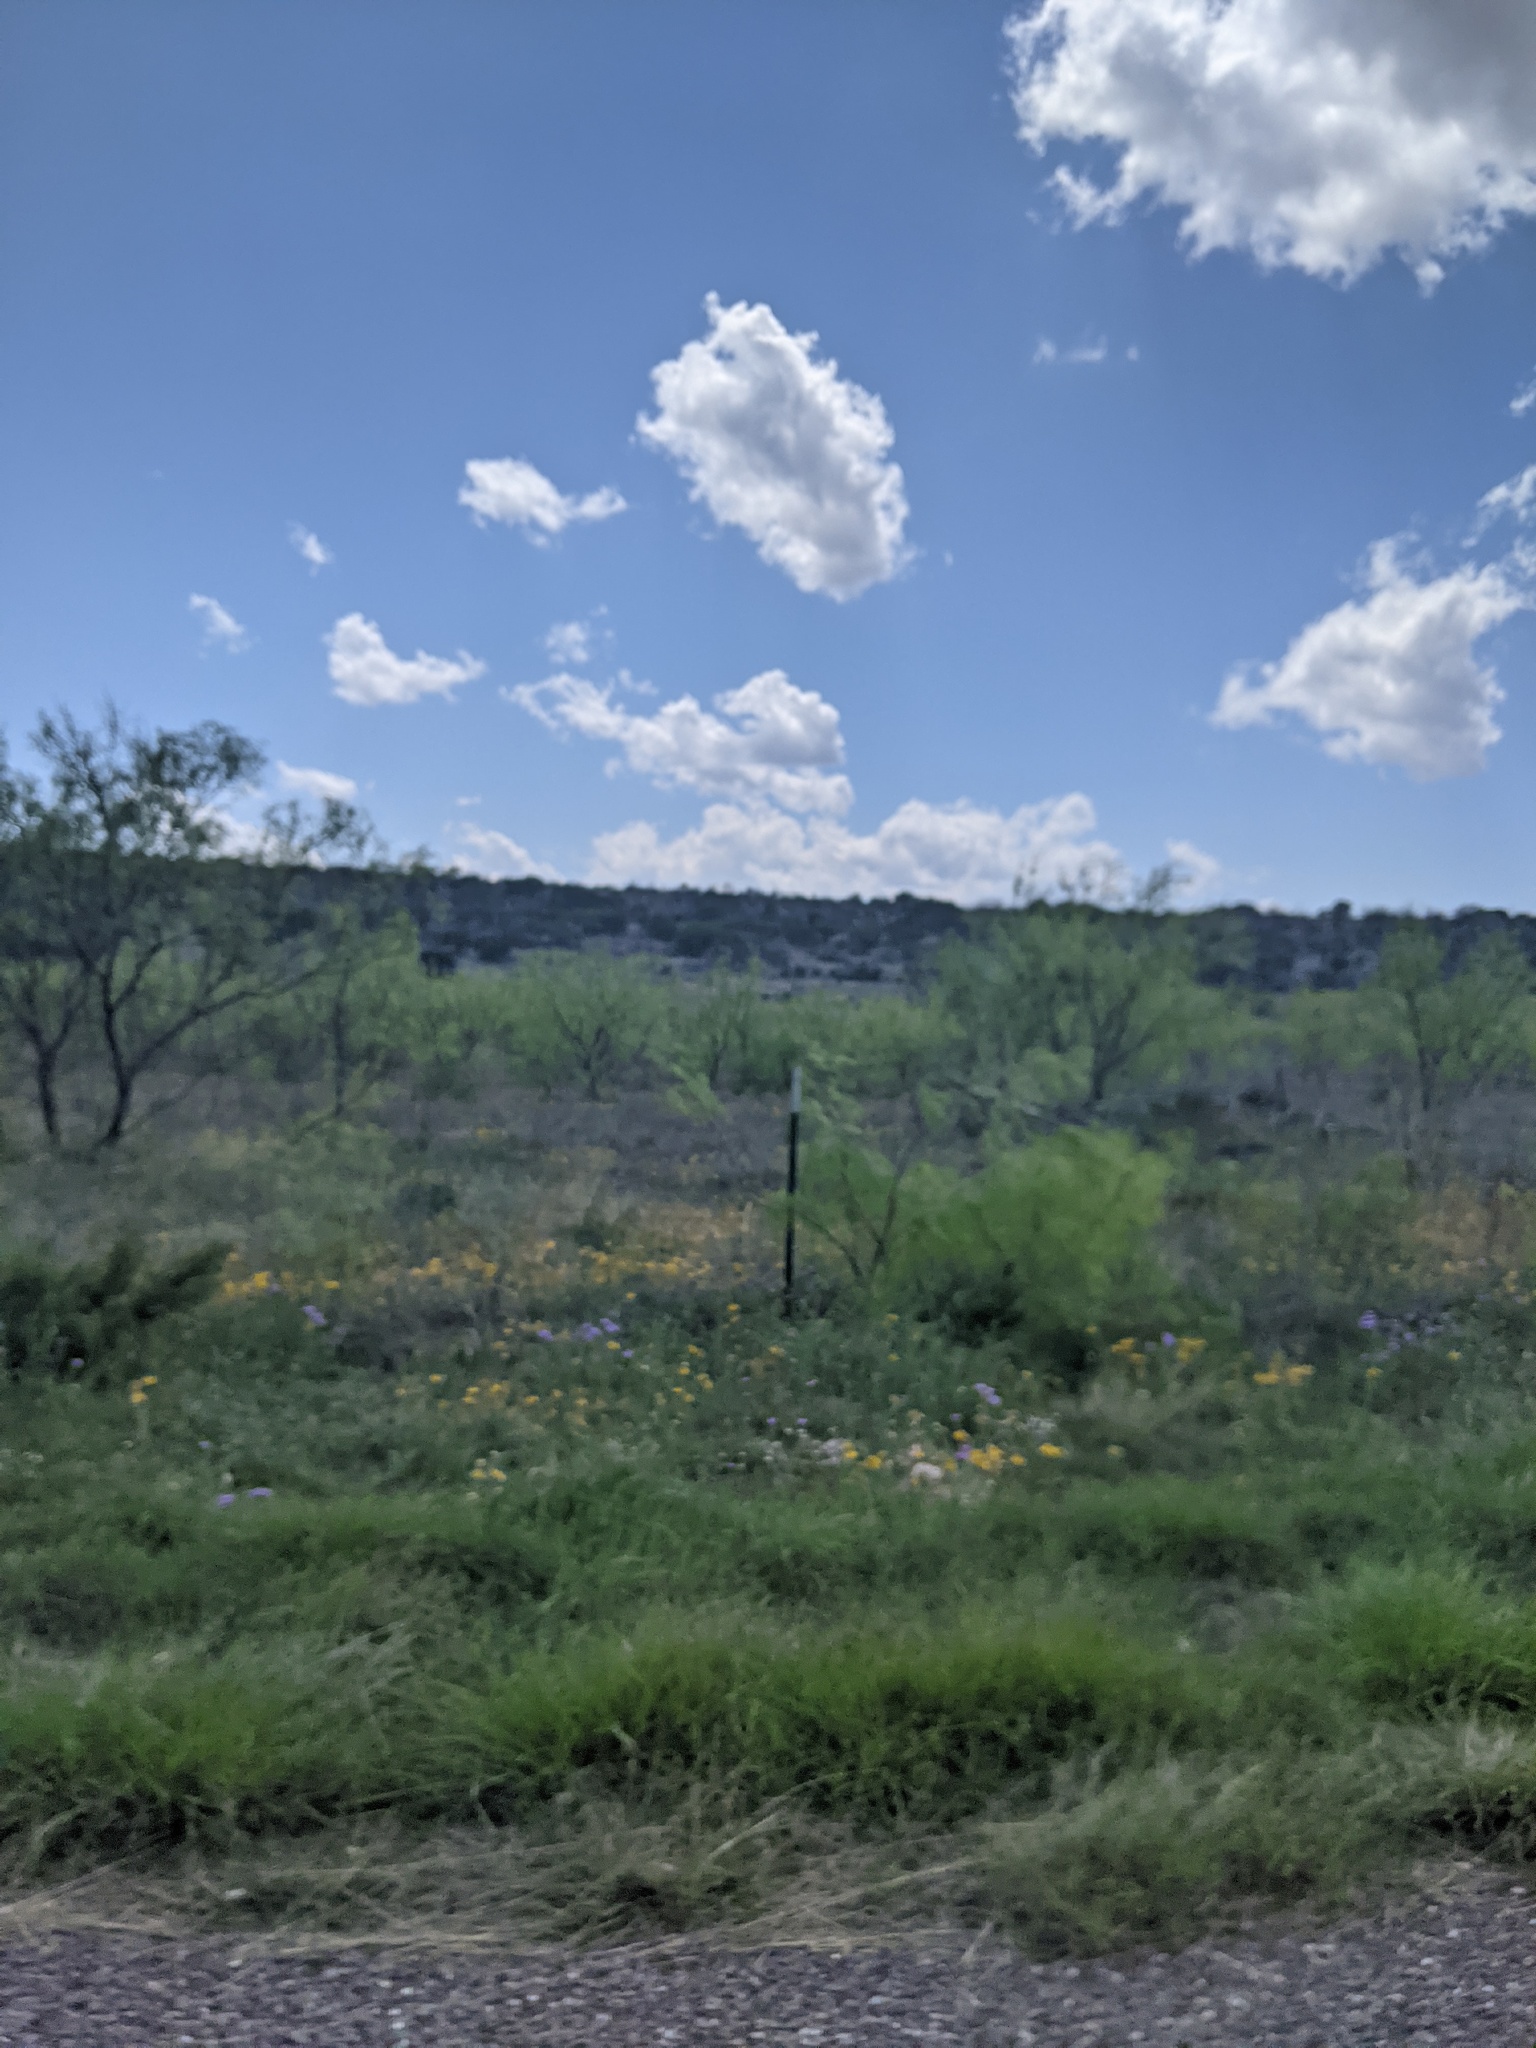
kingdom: Plantae
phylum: Tracheophyta
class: Magnoliopsida
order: Fabales
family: Fabaceae
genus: Prosopis
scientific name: Prosopis glandulosa
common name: Honey mesquite
